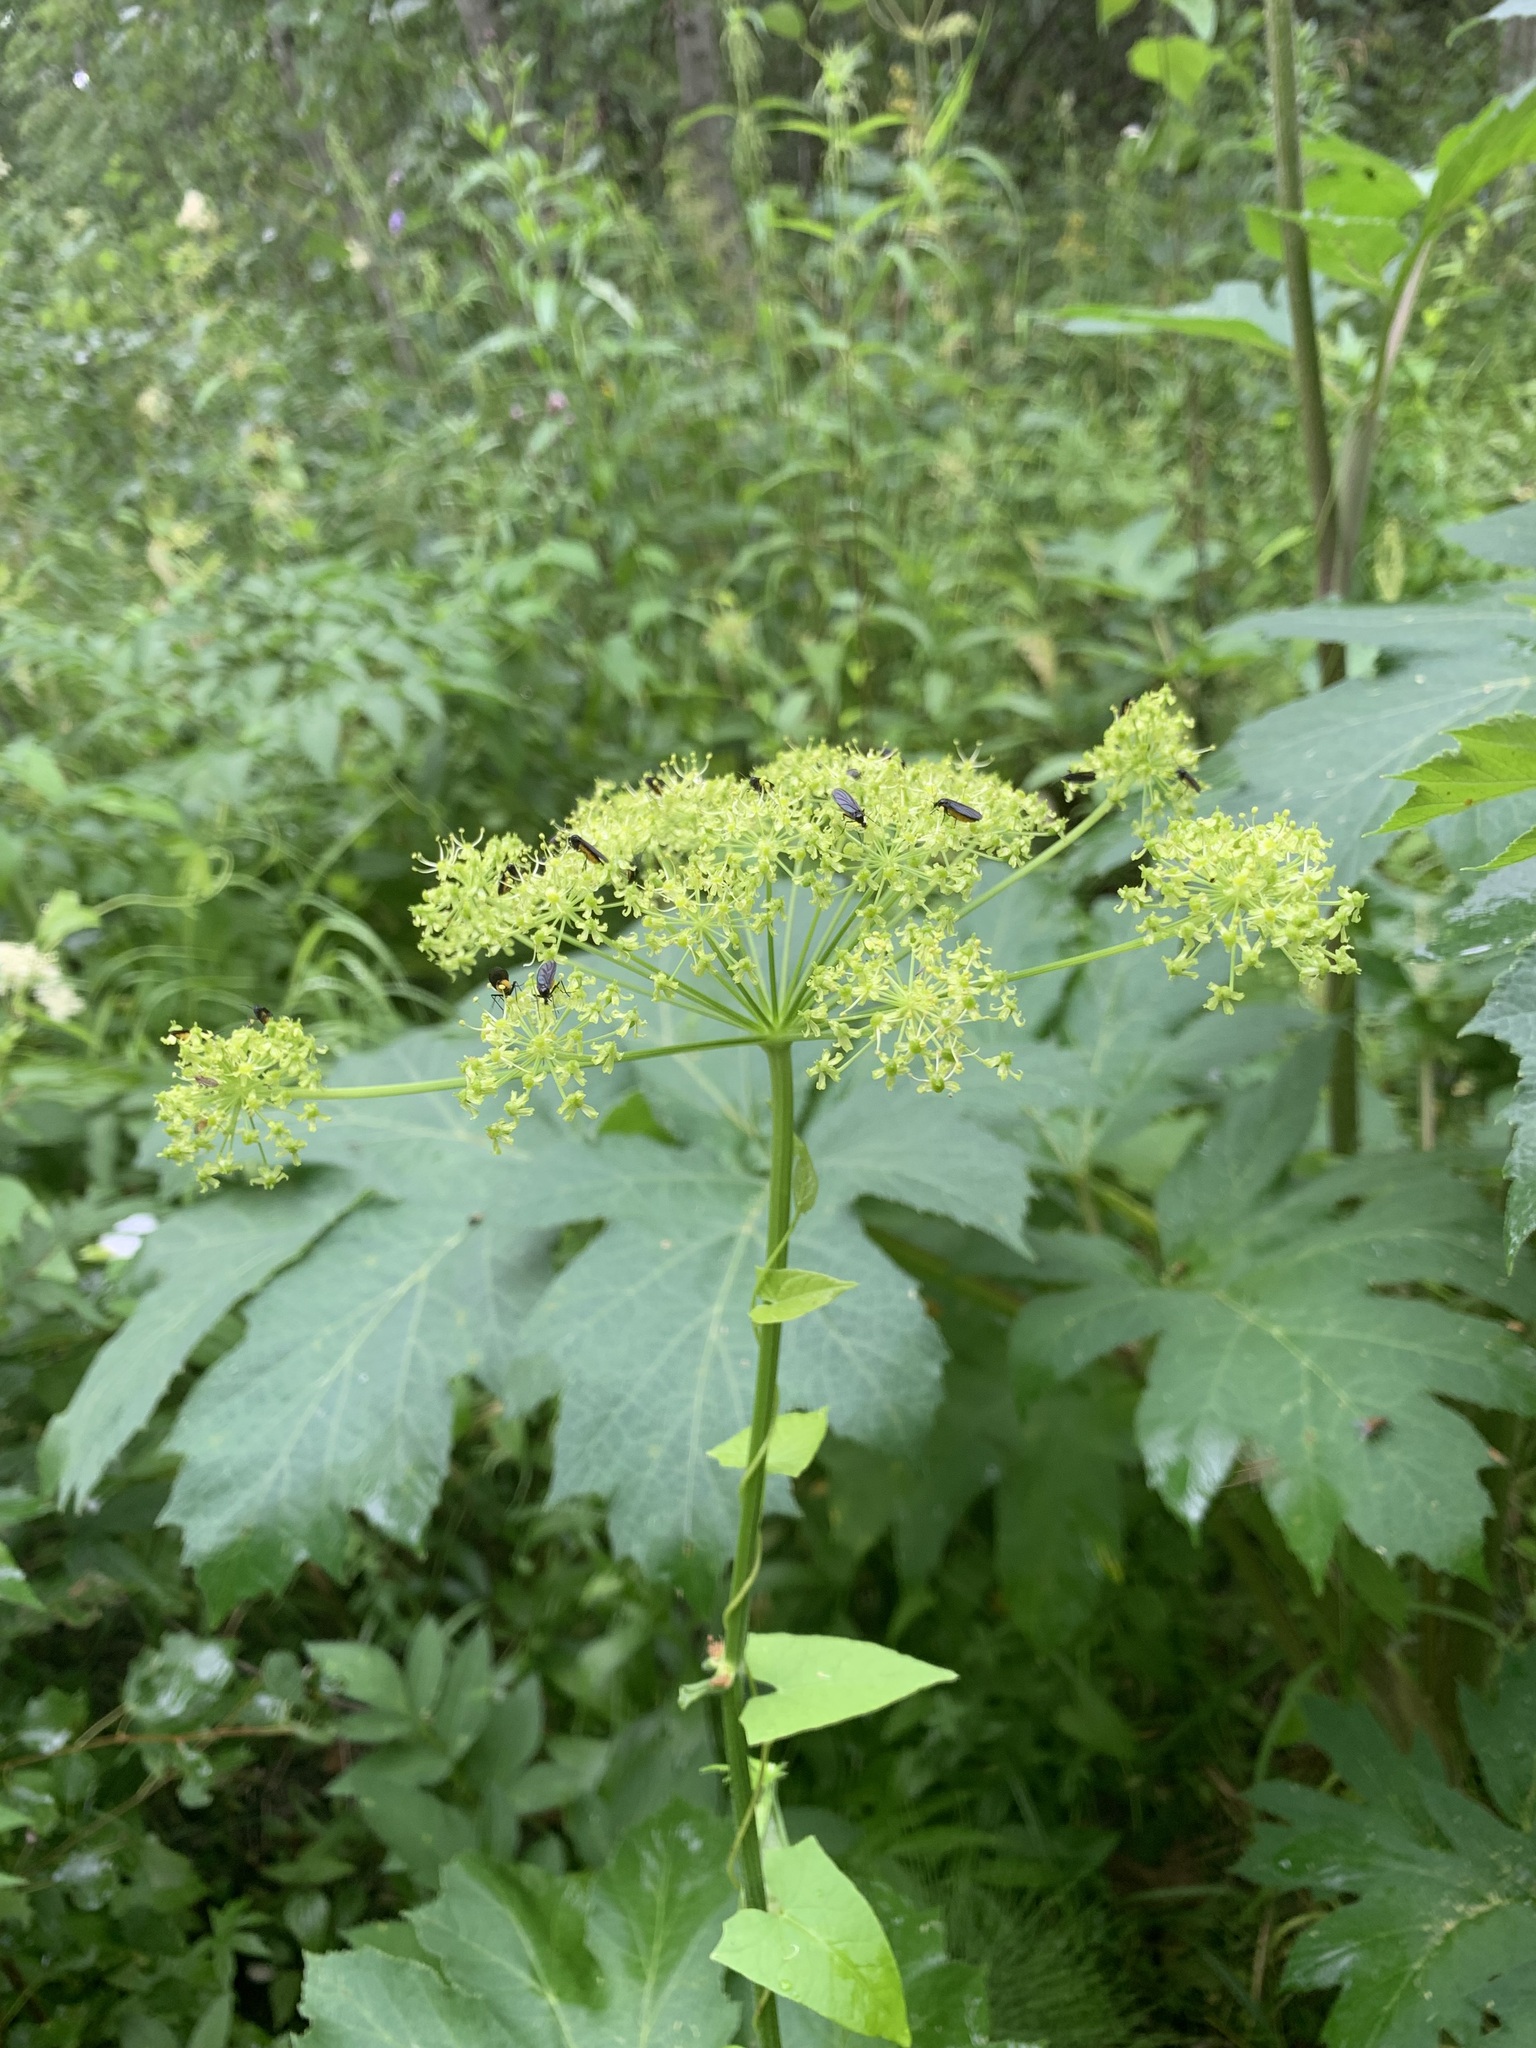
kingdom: Plantae
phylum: Tracheophyta
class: Magnoliopsida
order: Apiales
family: Apiaceae
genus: Heracleum
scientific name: Heracleum sphondylium
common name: Hogweed
